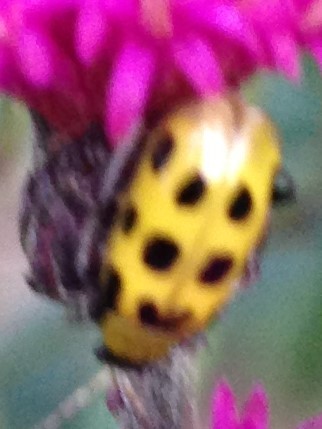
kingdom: Animalia
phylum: Arthropoda
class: Insecta
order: Coleoptera
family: Chrysomelidae
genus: Diabrotica
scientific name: Diabrotica undecimpunctata
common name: Spotted cucumber beetle
